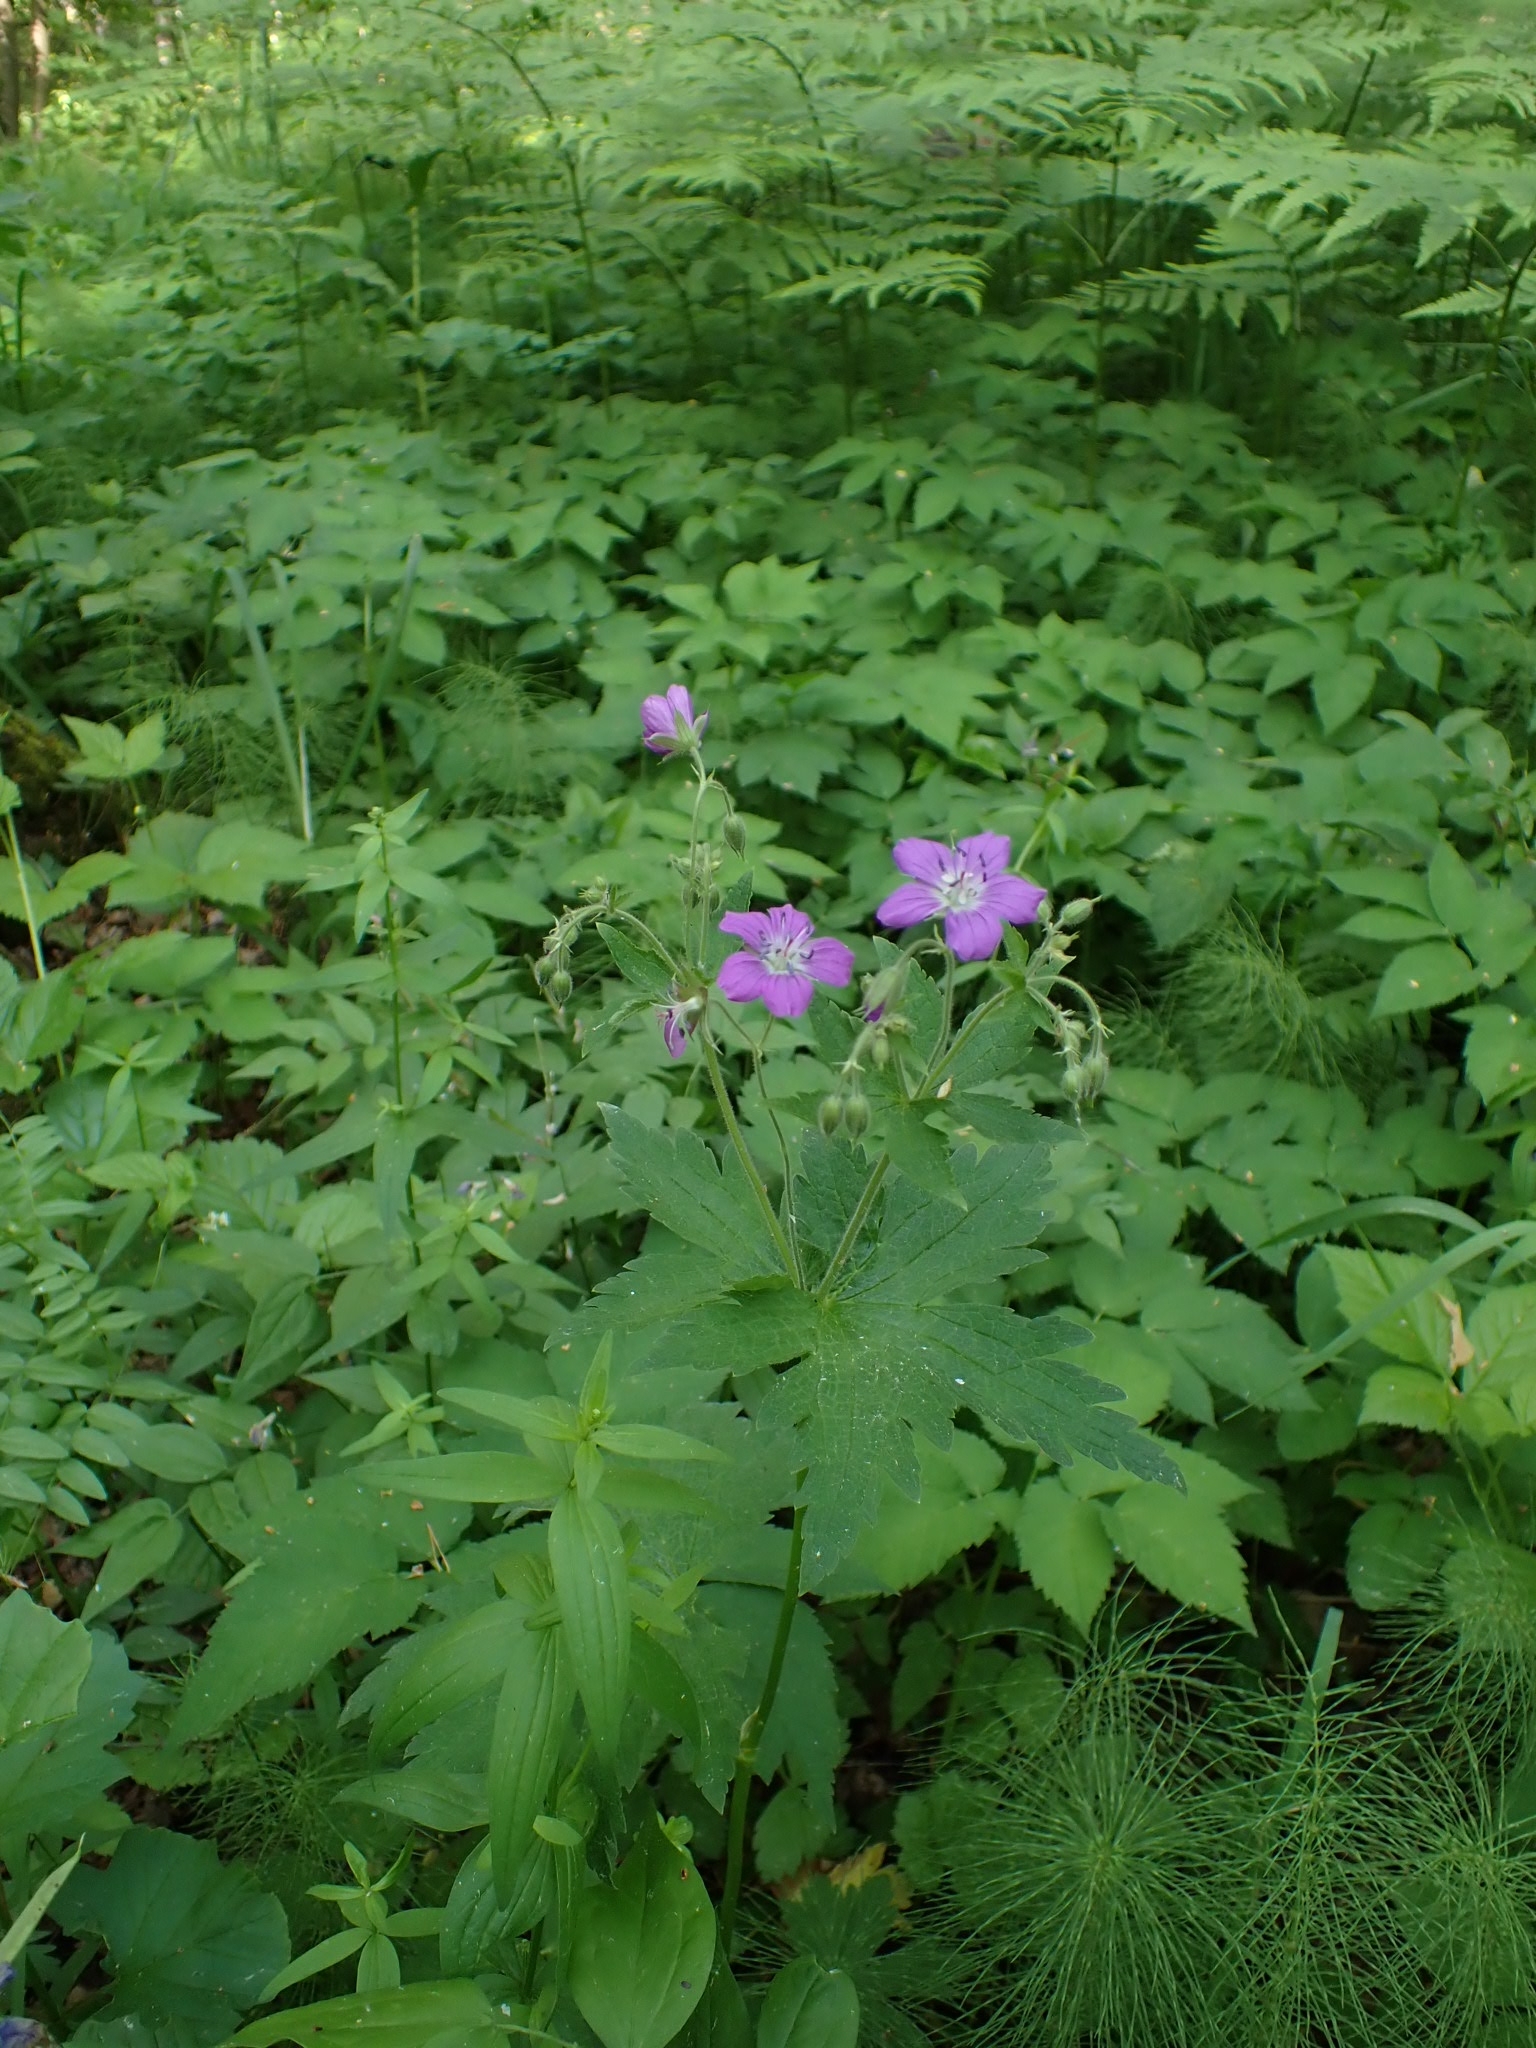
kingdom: Plantae
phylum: Tracheophyta
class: Magnoliopsida
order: Geraniales
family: Geraniaceae
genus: Geranium
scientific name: Geranium sylvaticum
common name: Wood crane's-bill
